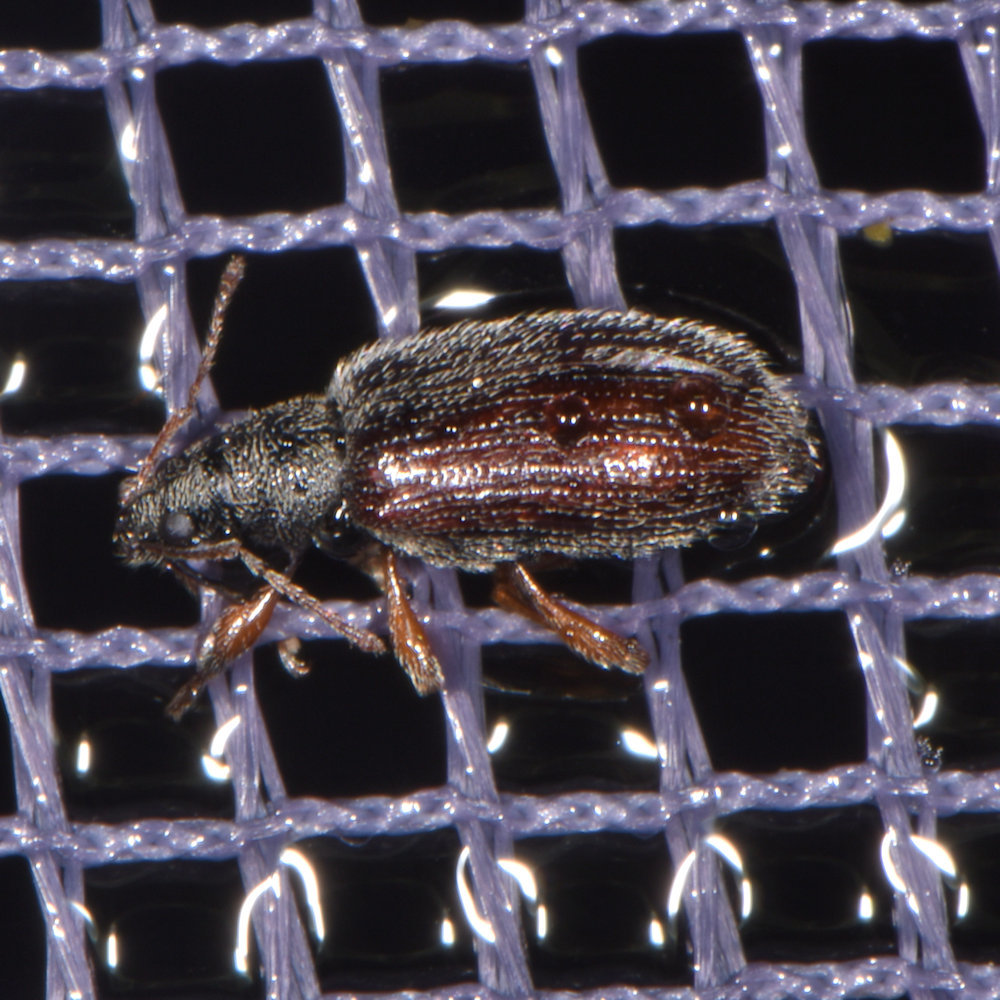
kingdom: Animalia
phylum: Arthropoda
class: Insecta
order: Coleoptera
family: Curculionidae
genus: Phyllobius
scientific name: Phyllobius oblongus
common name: Brown leaf weevil
